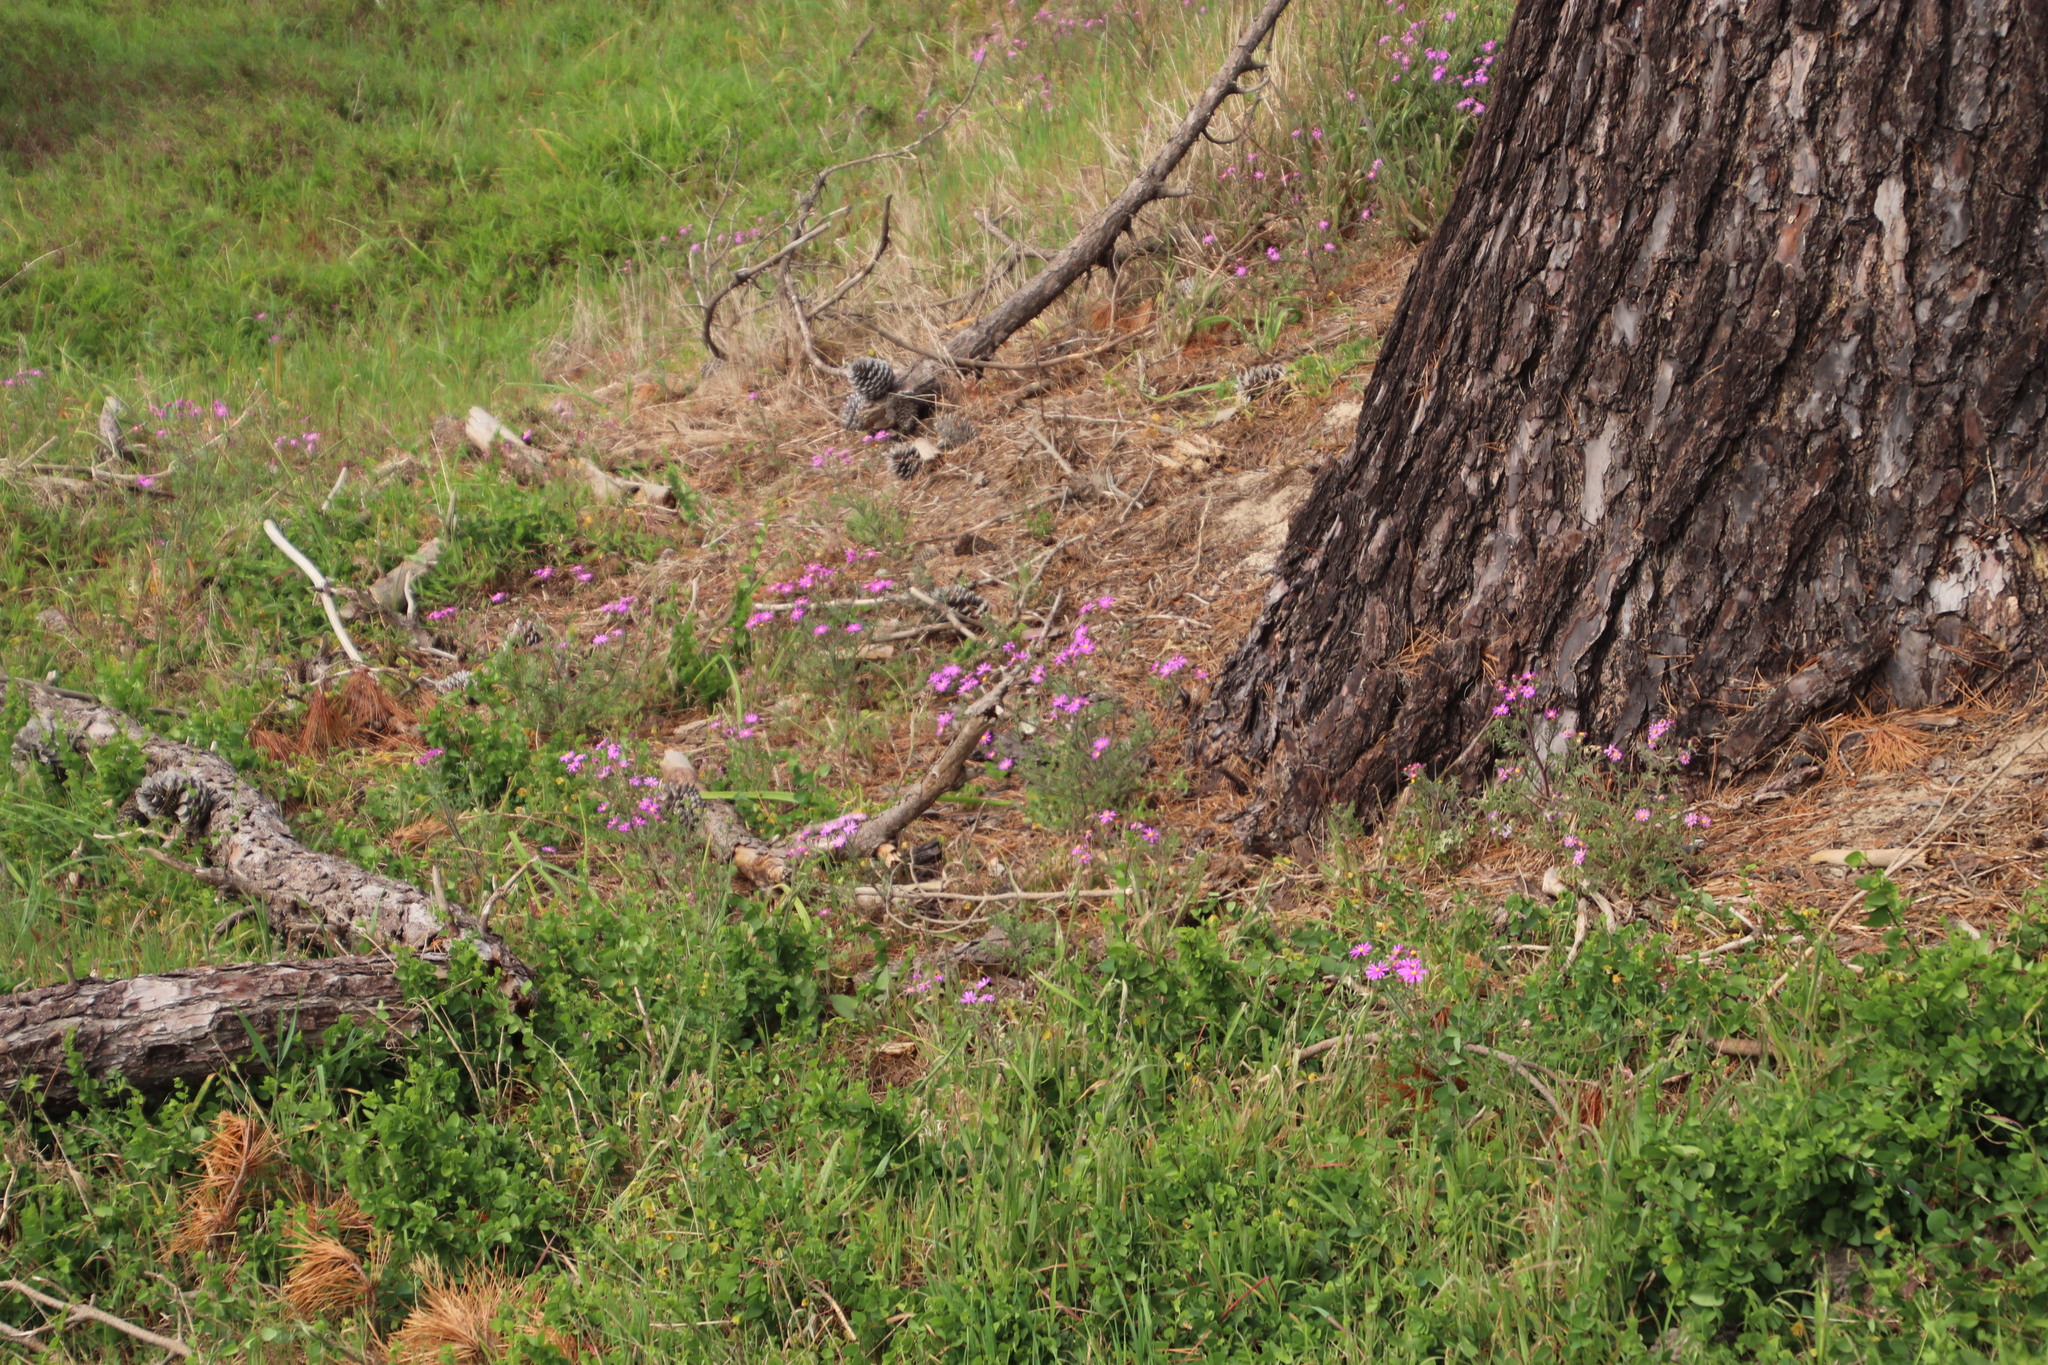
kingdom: Plantae
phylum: Tracheophyta
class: Magnoliopsida
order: Asterales
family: Asteraceae
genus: Senecio
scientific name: Senecio arenarius
